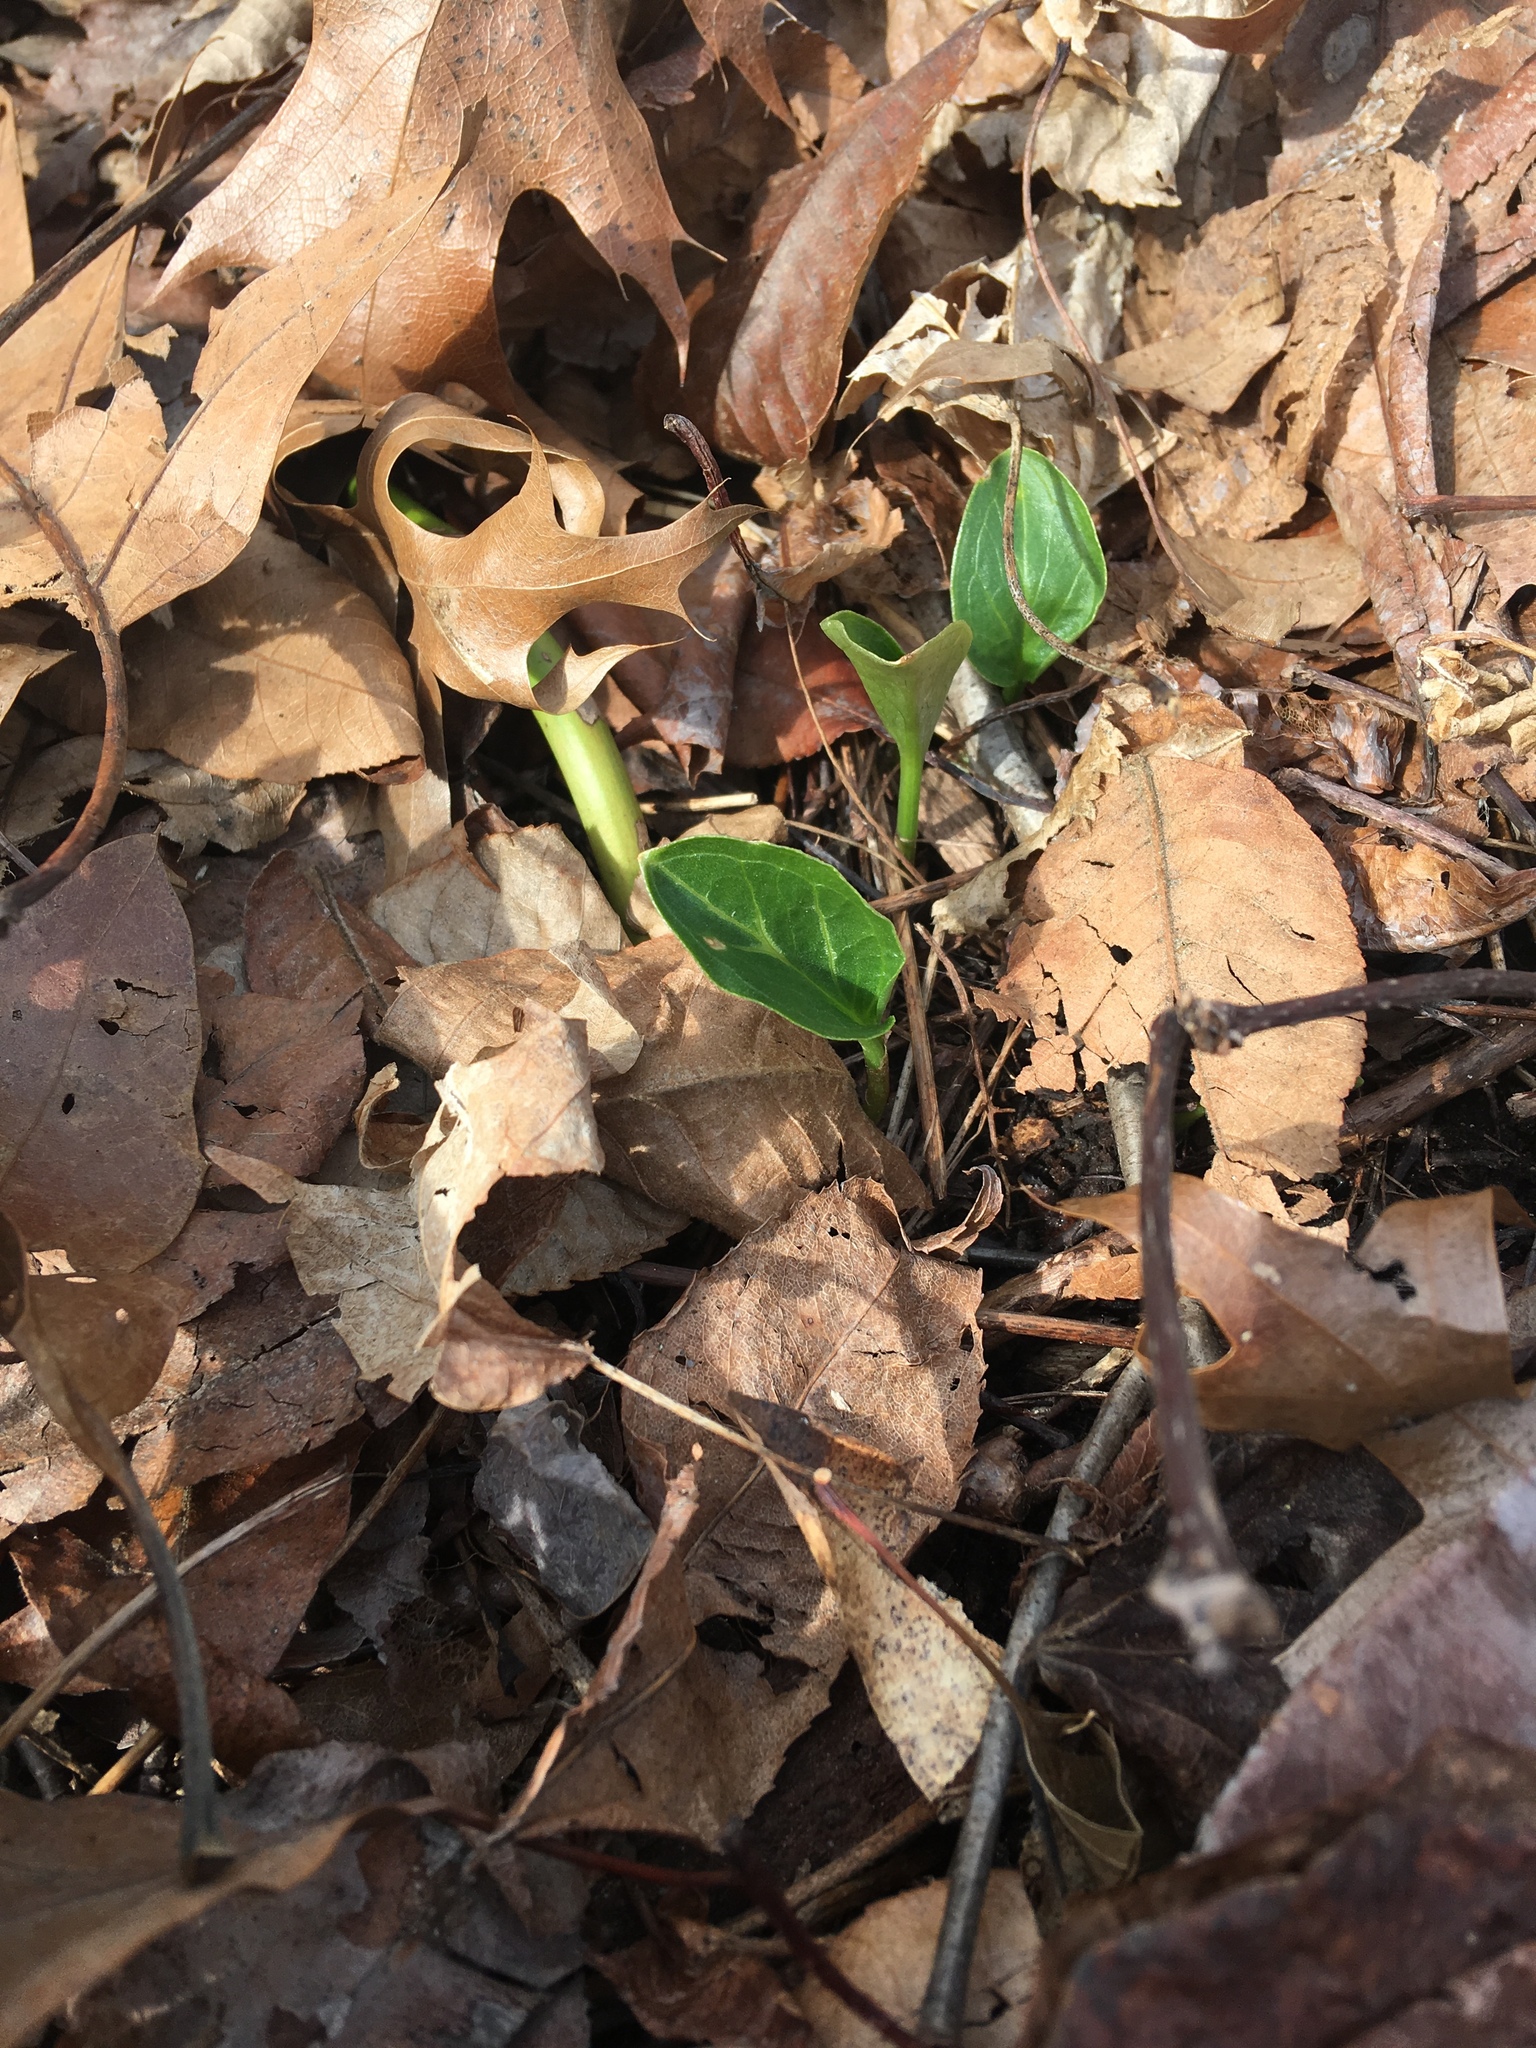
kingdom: Plantae
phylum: Tracheophyta
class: Liliopsida
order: Alismatales
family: Araceae
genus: Arum
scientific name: Arum italicum
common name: Italian lords-and-ladies
